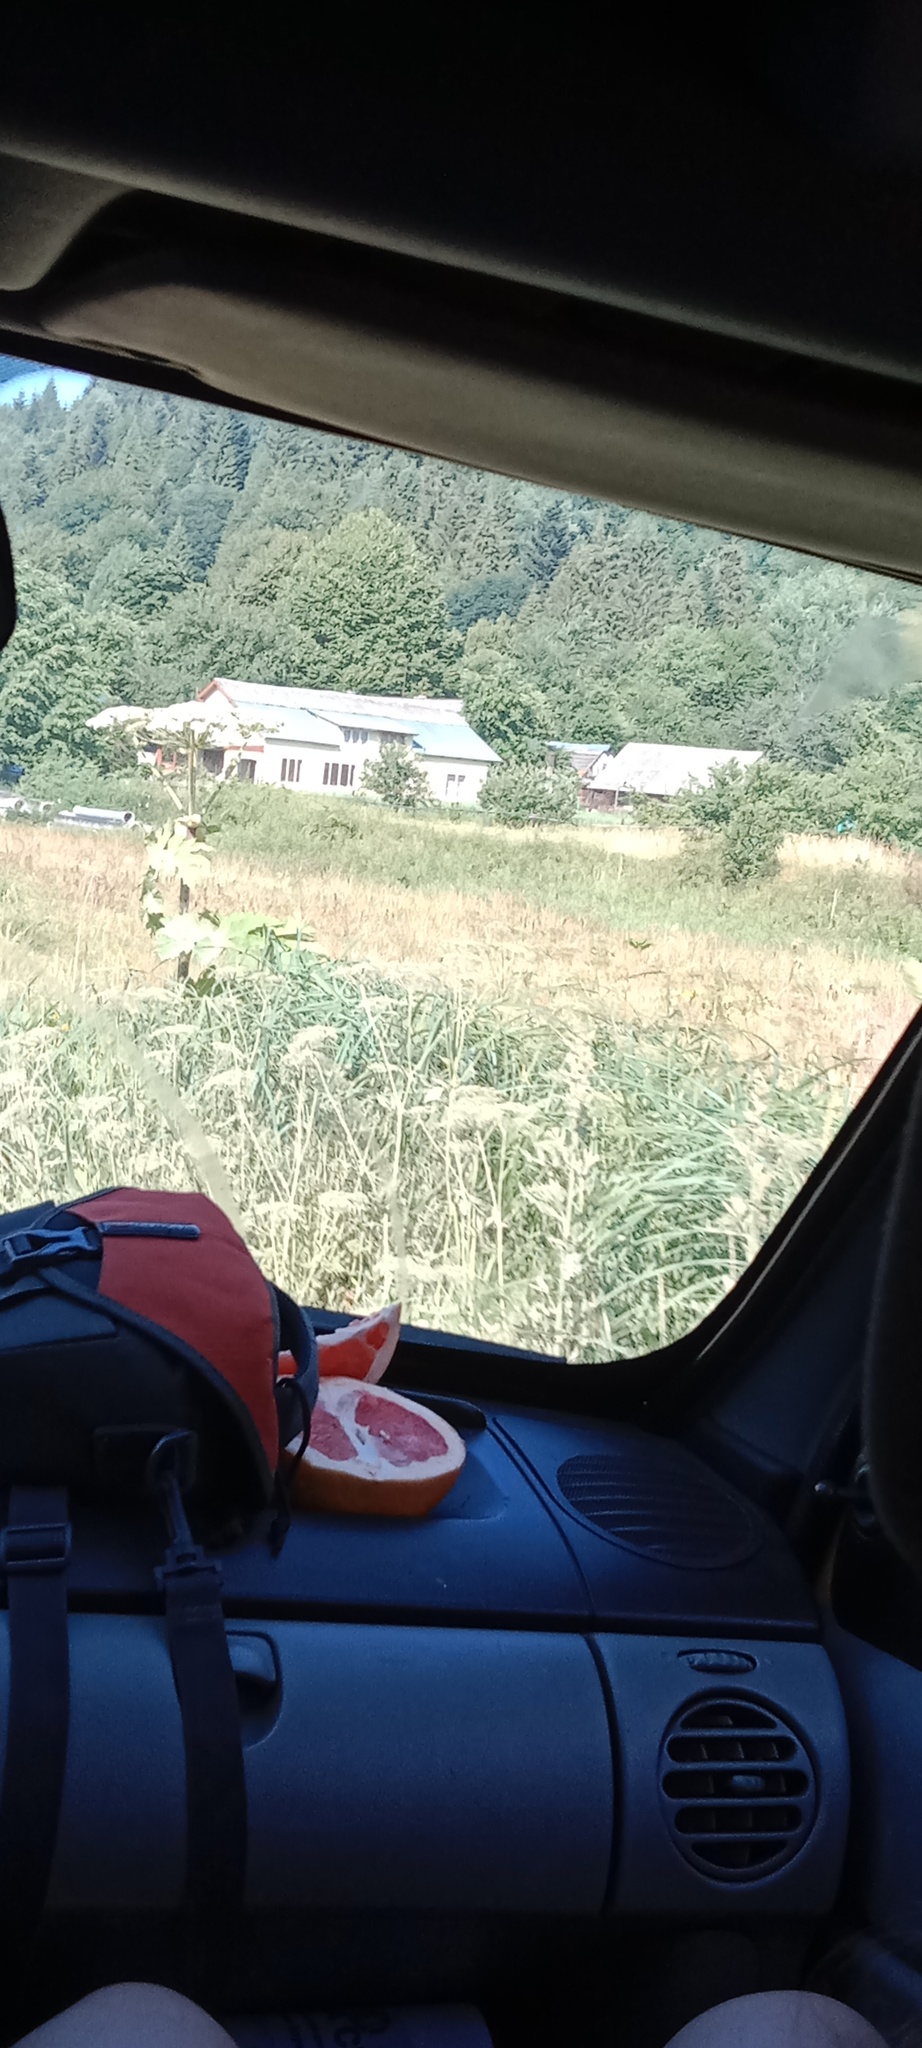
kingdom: Plantae
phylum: Tracheophyta
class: Magnoliopsida
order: Apiales
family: Apiaceae
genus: Heracleum
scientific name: Heracleum sosnowskyi
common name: Sosnowsky's hogweed
